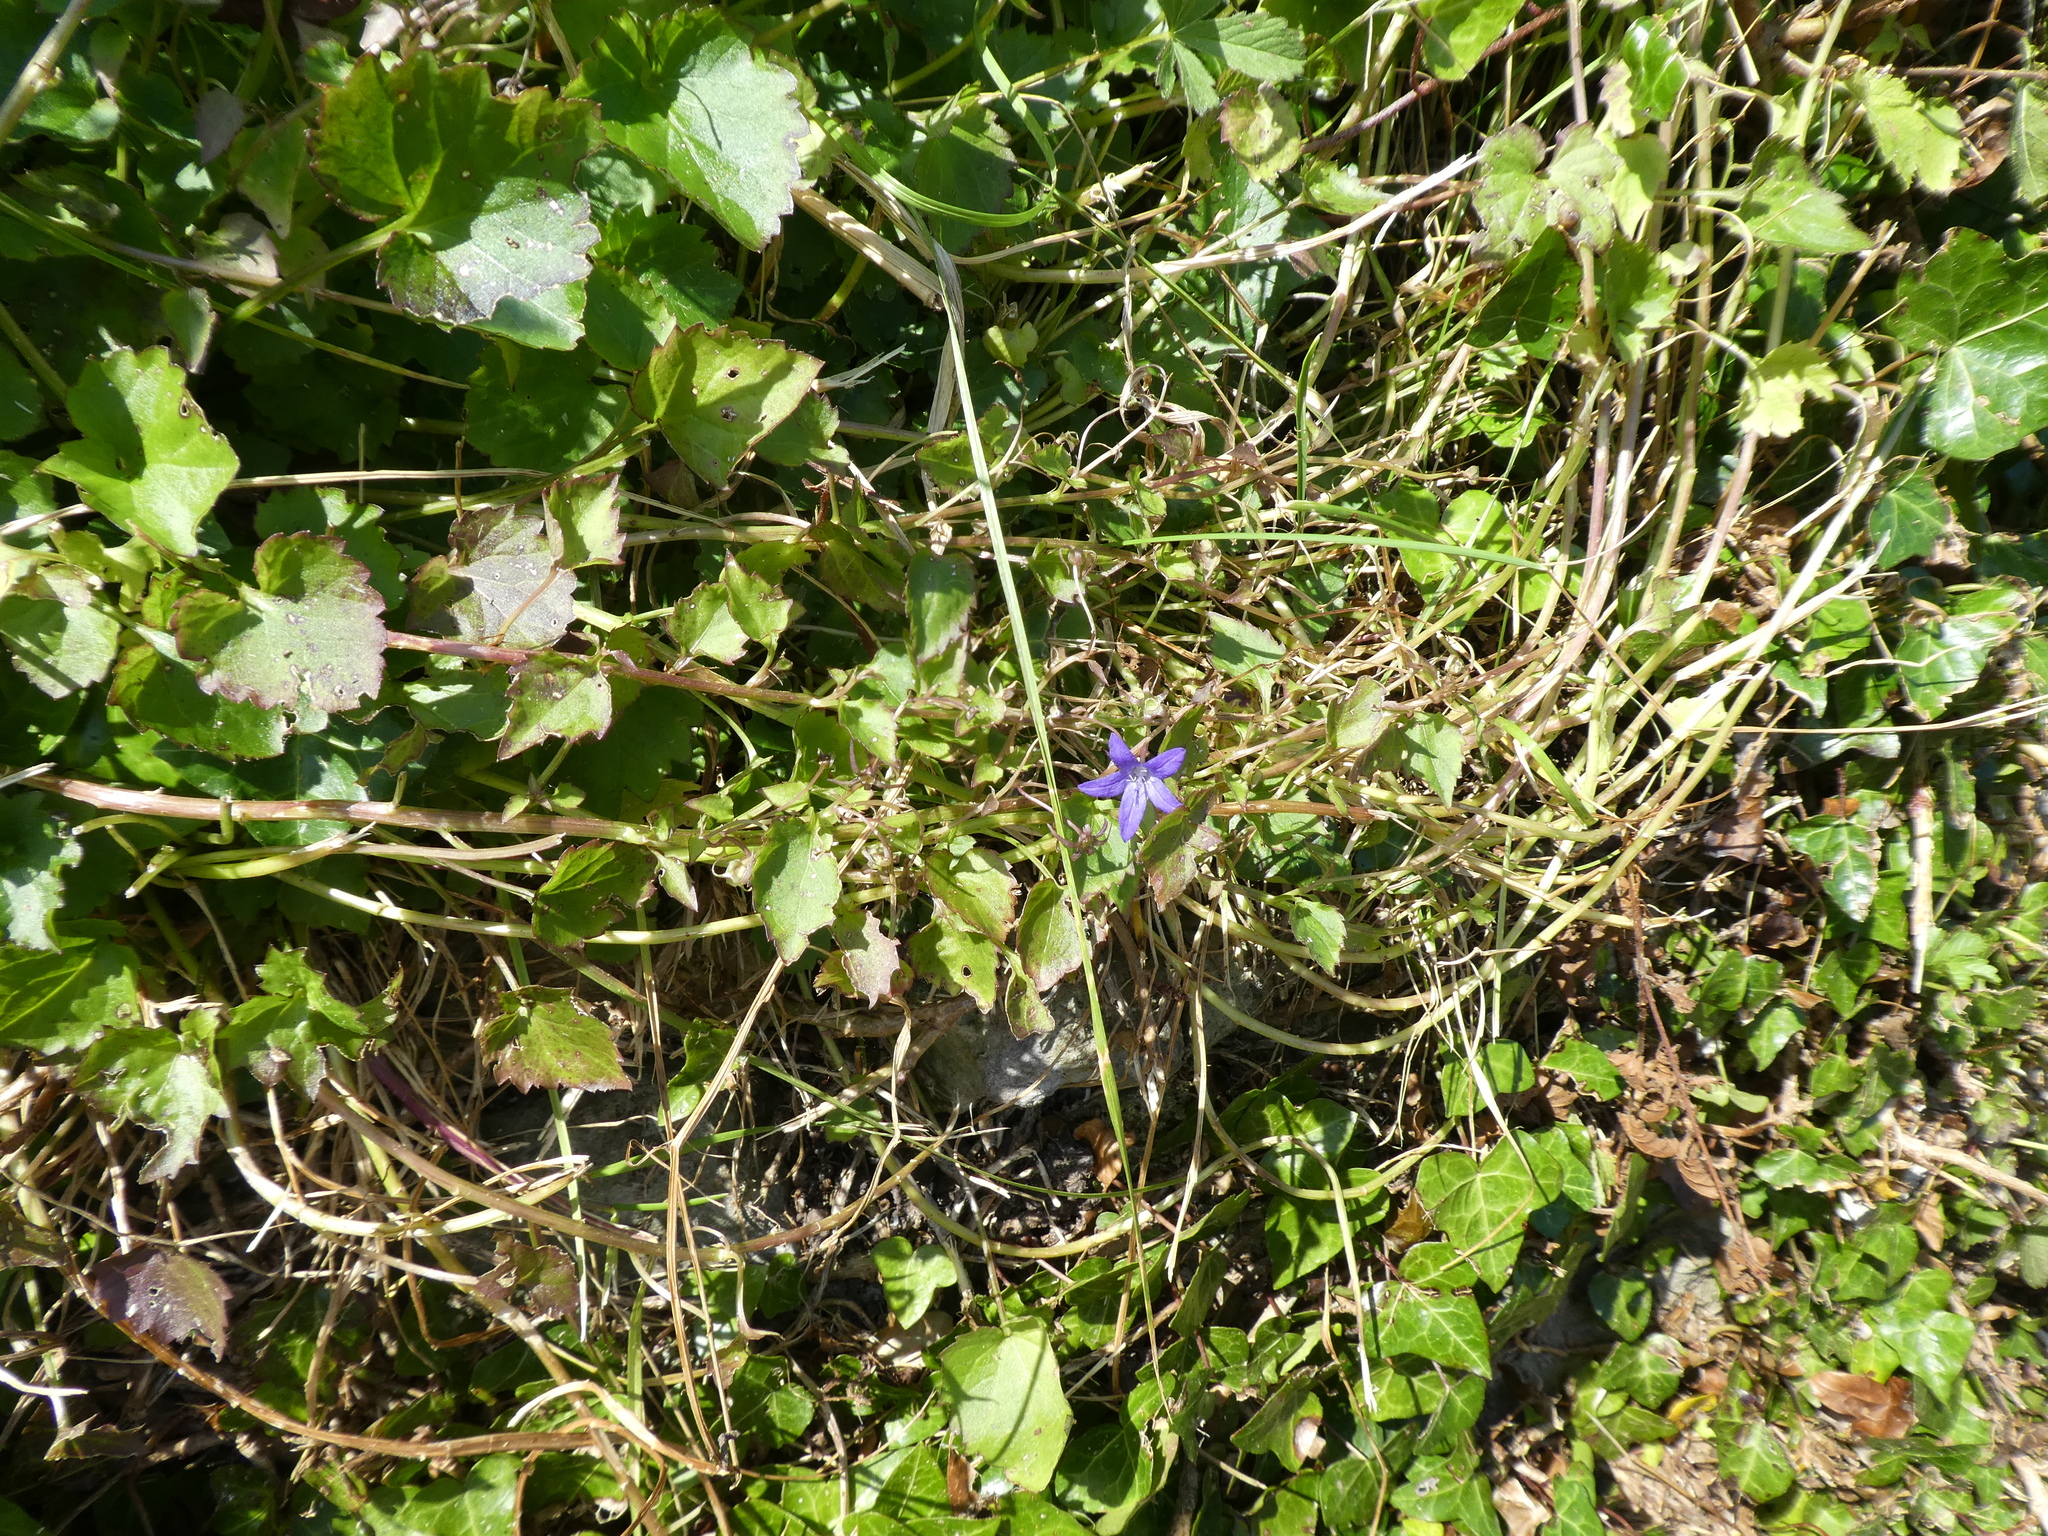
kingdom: Plantae
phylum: Tracheophyta
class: Magnoliopsida
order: Asterales
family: Campanulaceae
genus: Campanula
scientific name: Campanula poscharskyana
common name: Trailing bellflower
